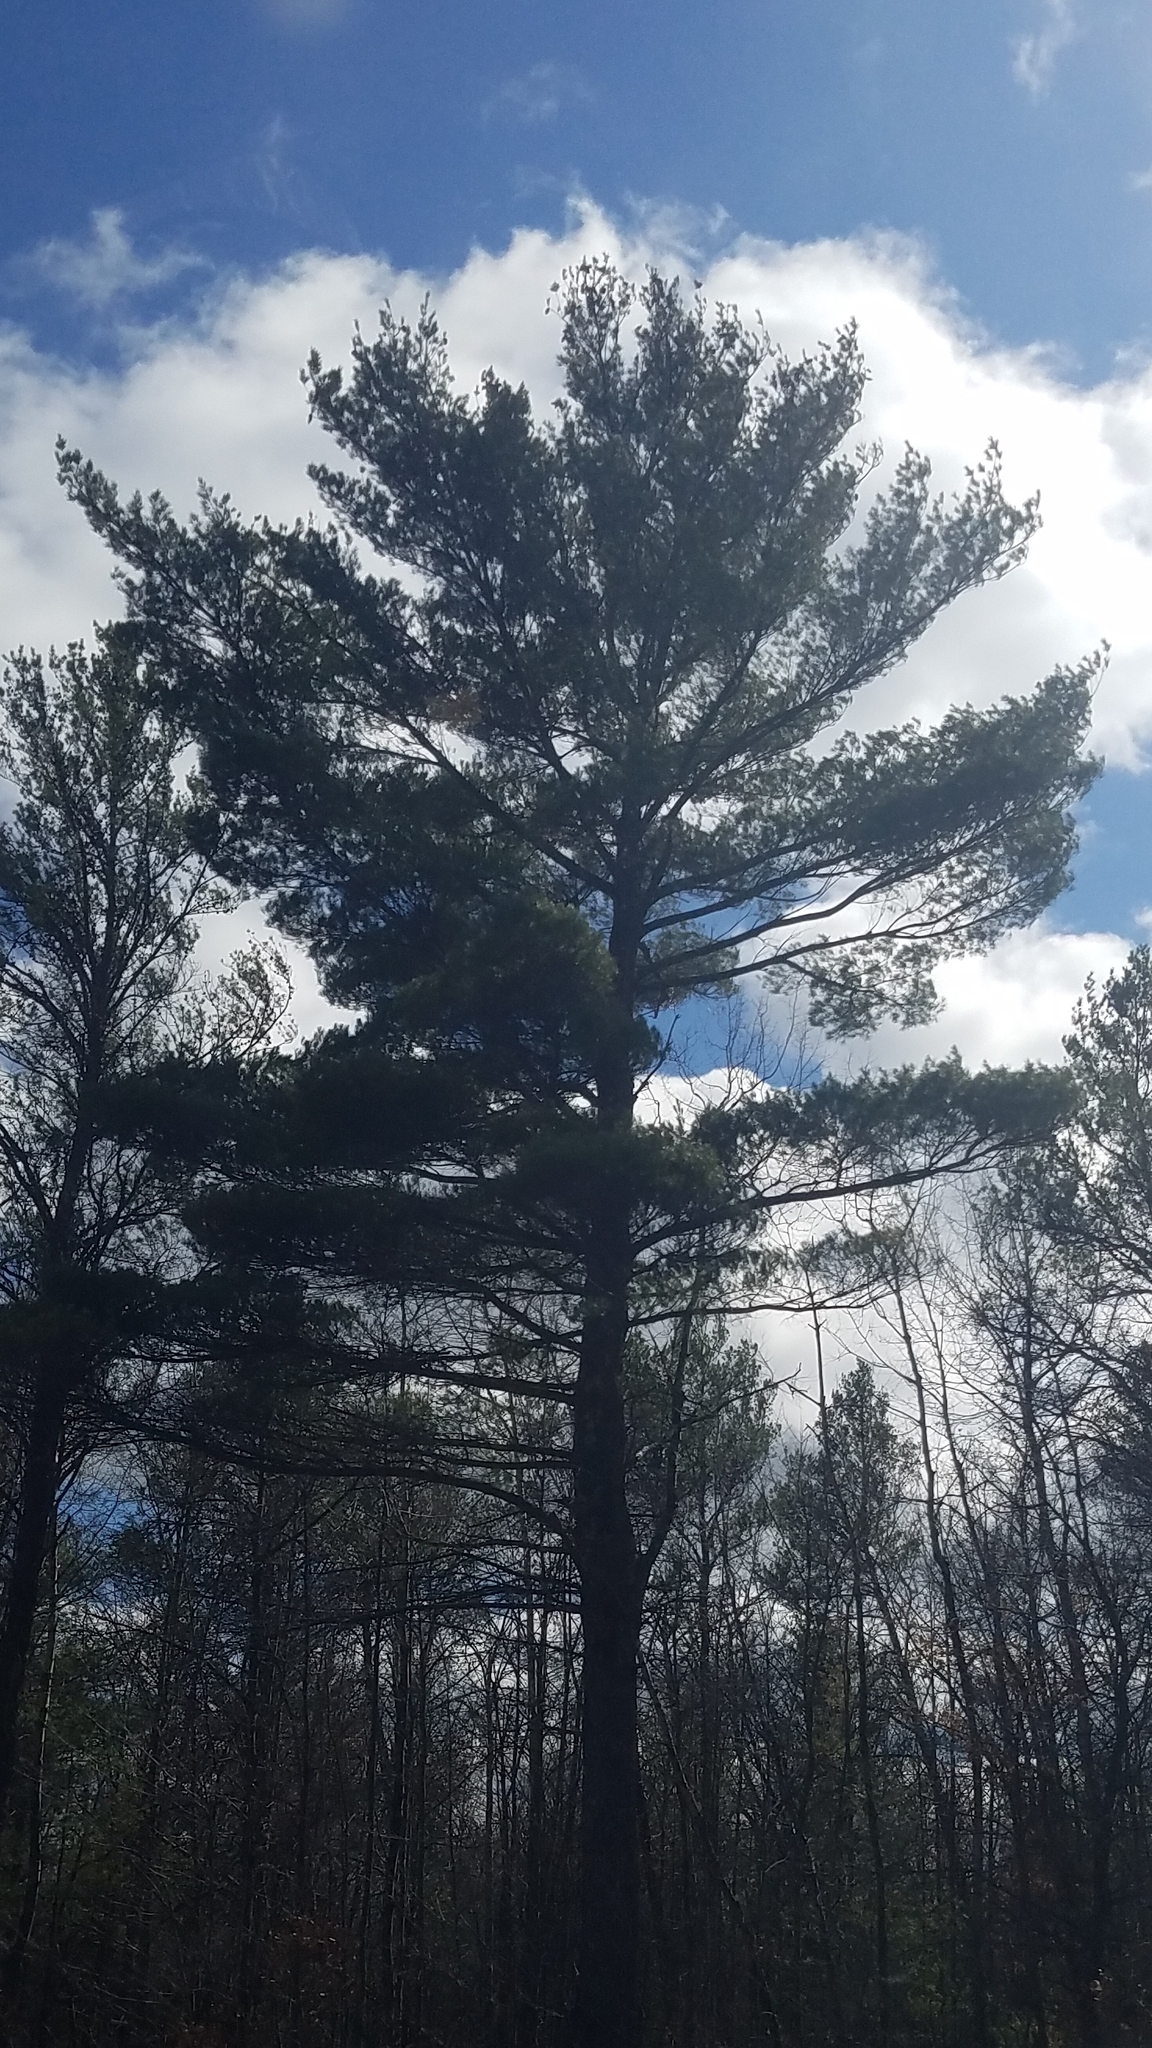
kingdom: Plantae
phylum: Tracheophyta
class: Pinopsida
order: Pinales
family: Pinaceae
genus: Pinus
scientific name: Pinus strobus
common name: Weymouth pine
